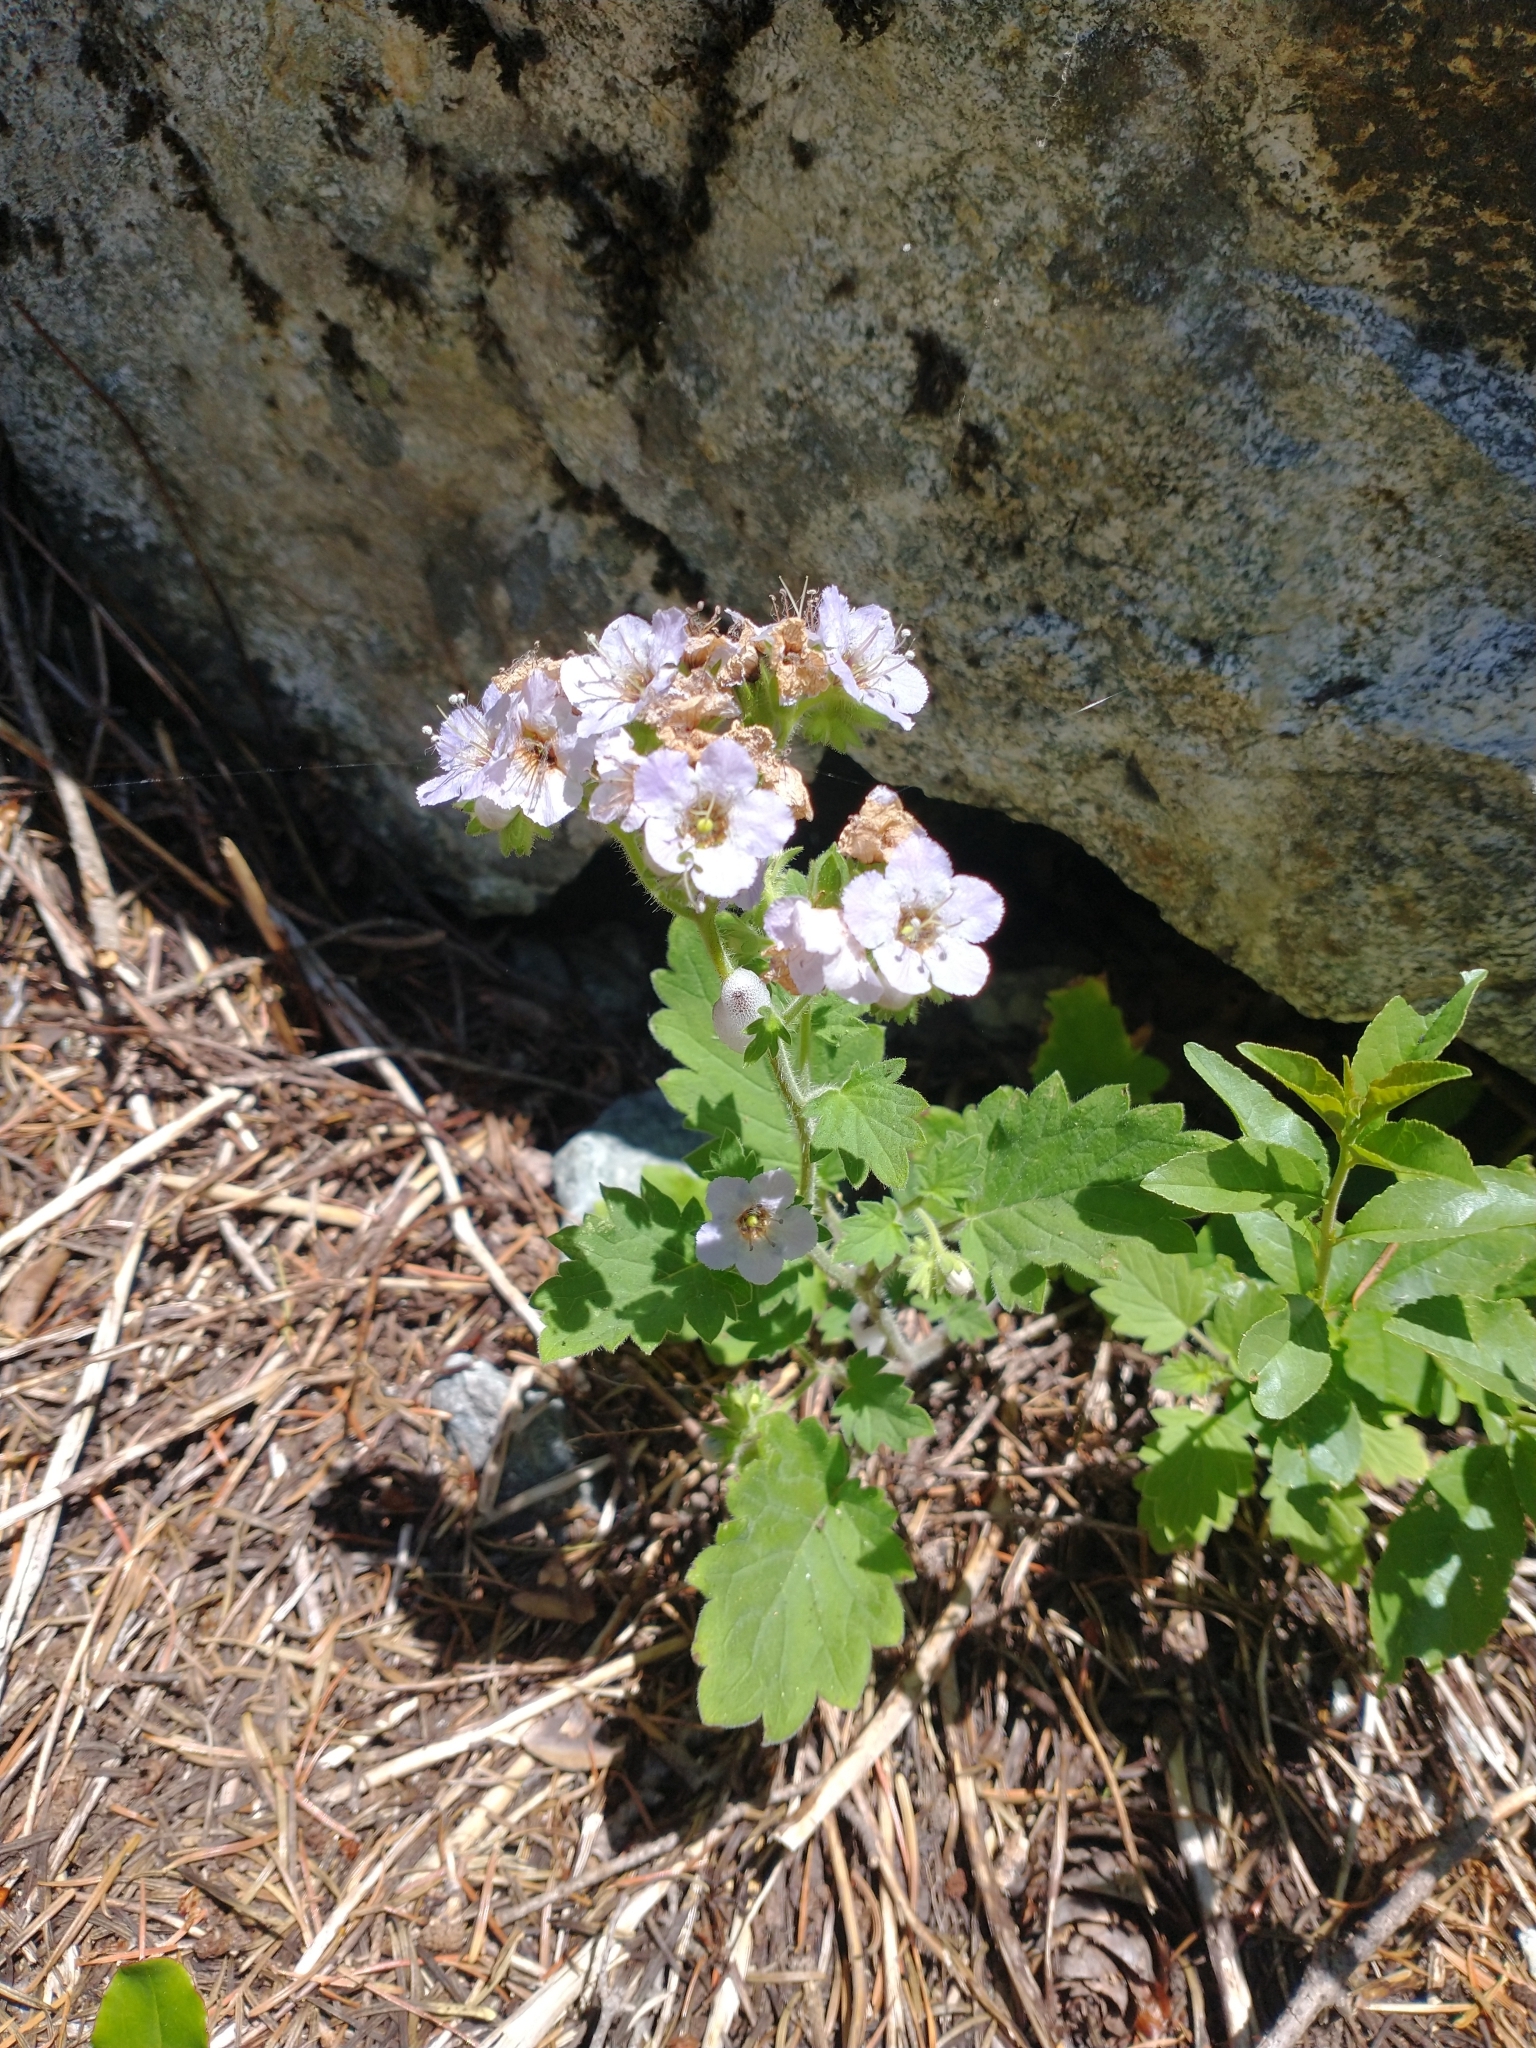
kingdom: Plantae
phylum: Tracheophyta
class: Magnoliopsida
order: Boraginales
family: Hydrophyllaceae
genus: Phacelia
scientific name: Phacelia bolanderi
